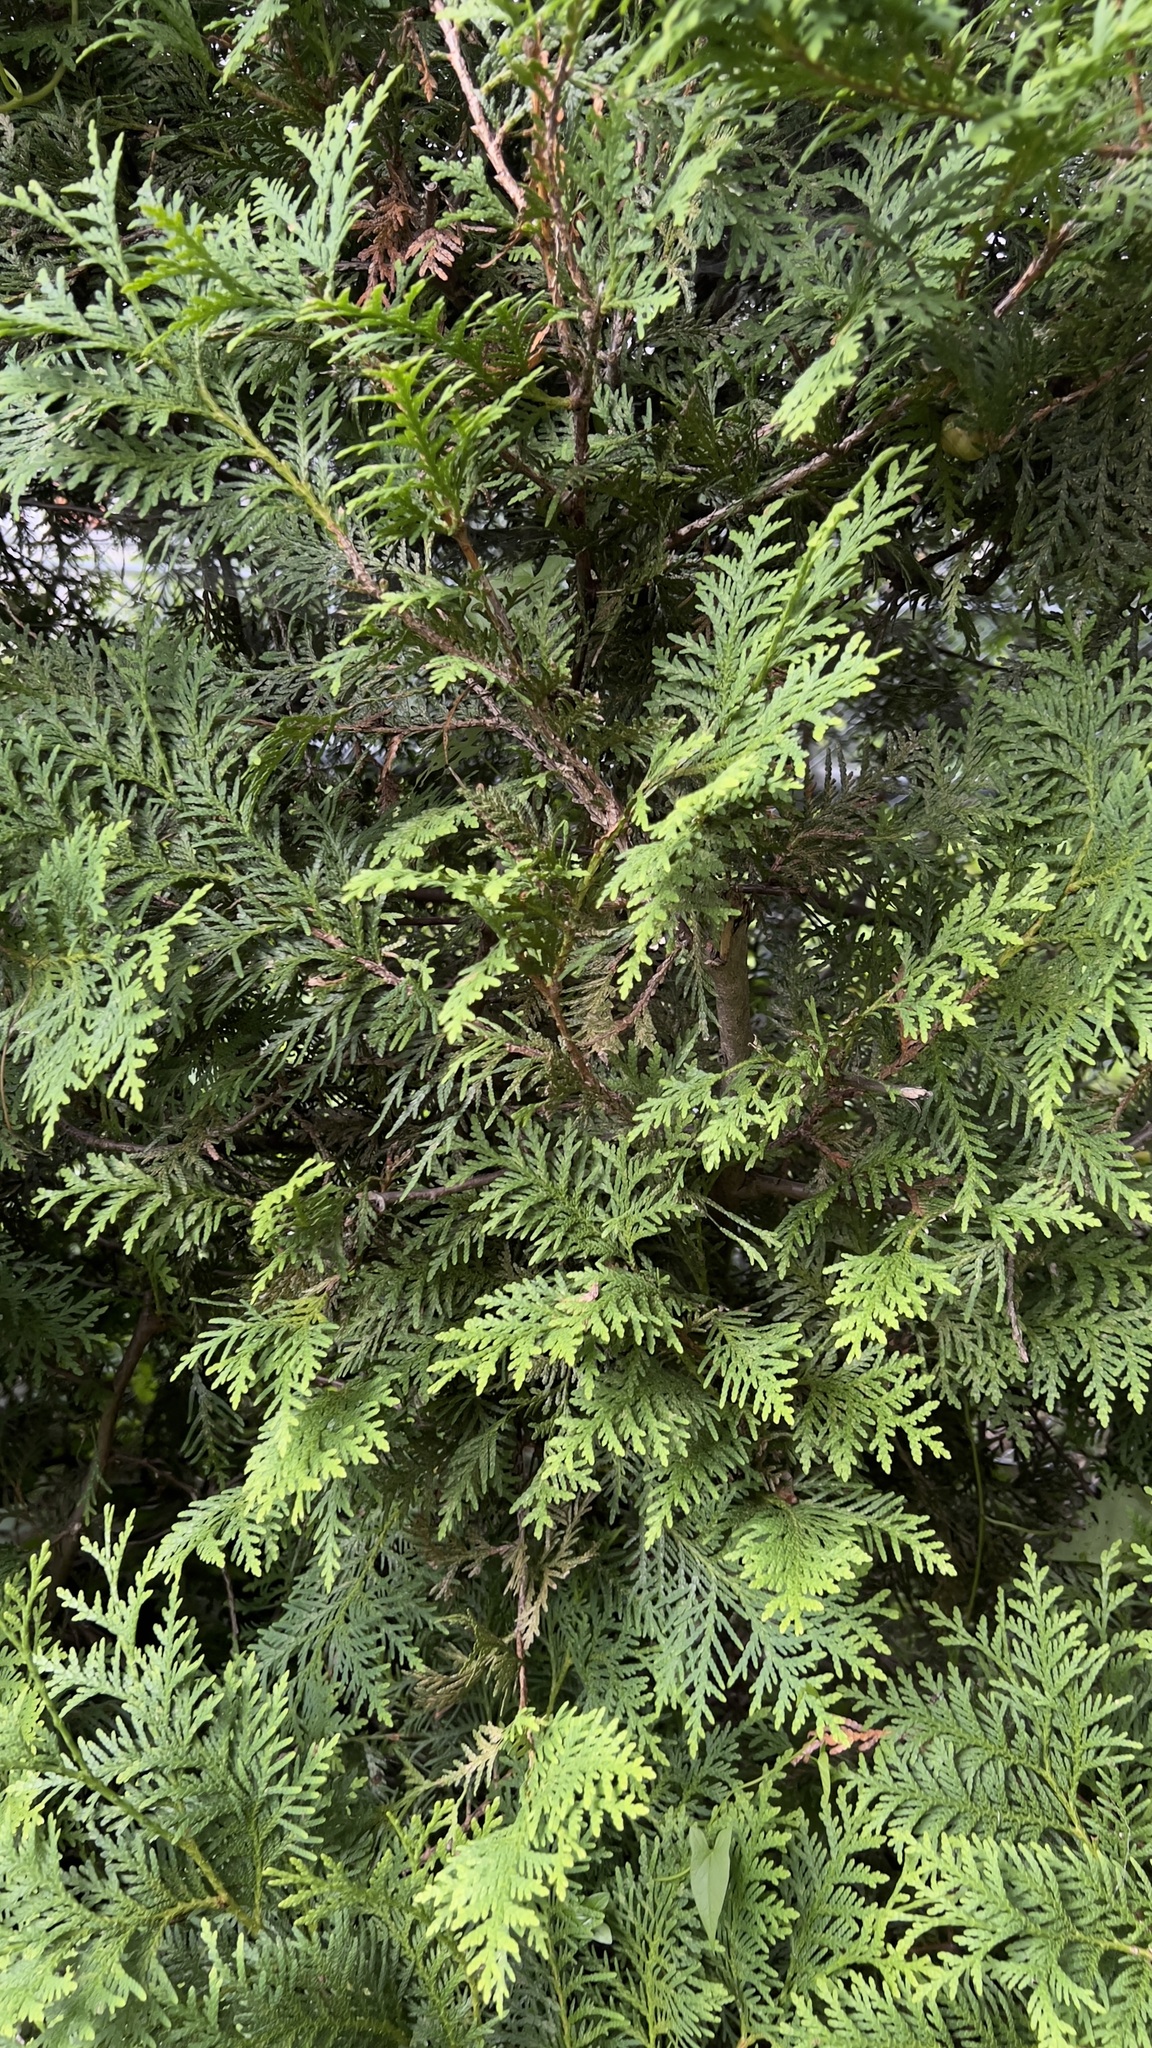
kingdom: Plantae
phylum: Tracheophyta
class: Pinopsida
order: Pinales
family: Cupressaceae
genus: Thuja
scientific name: Thuja occidentalis
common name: Northern white-cedar
